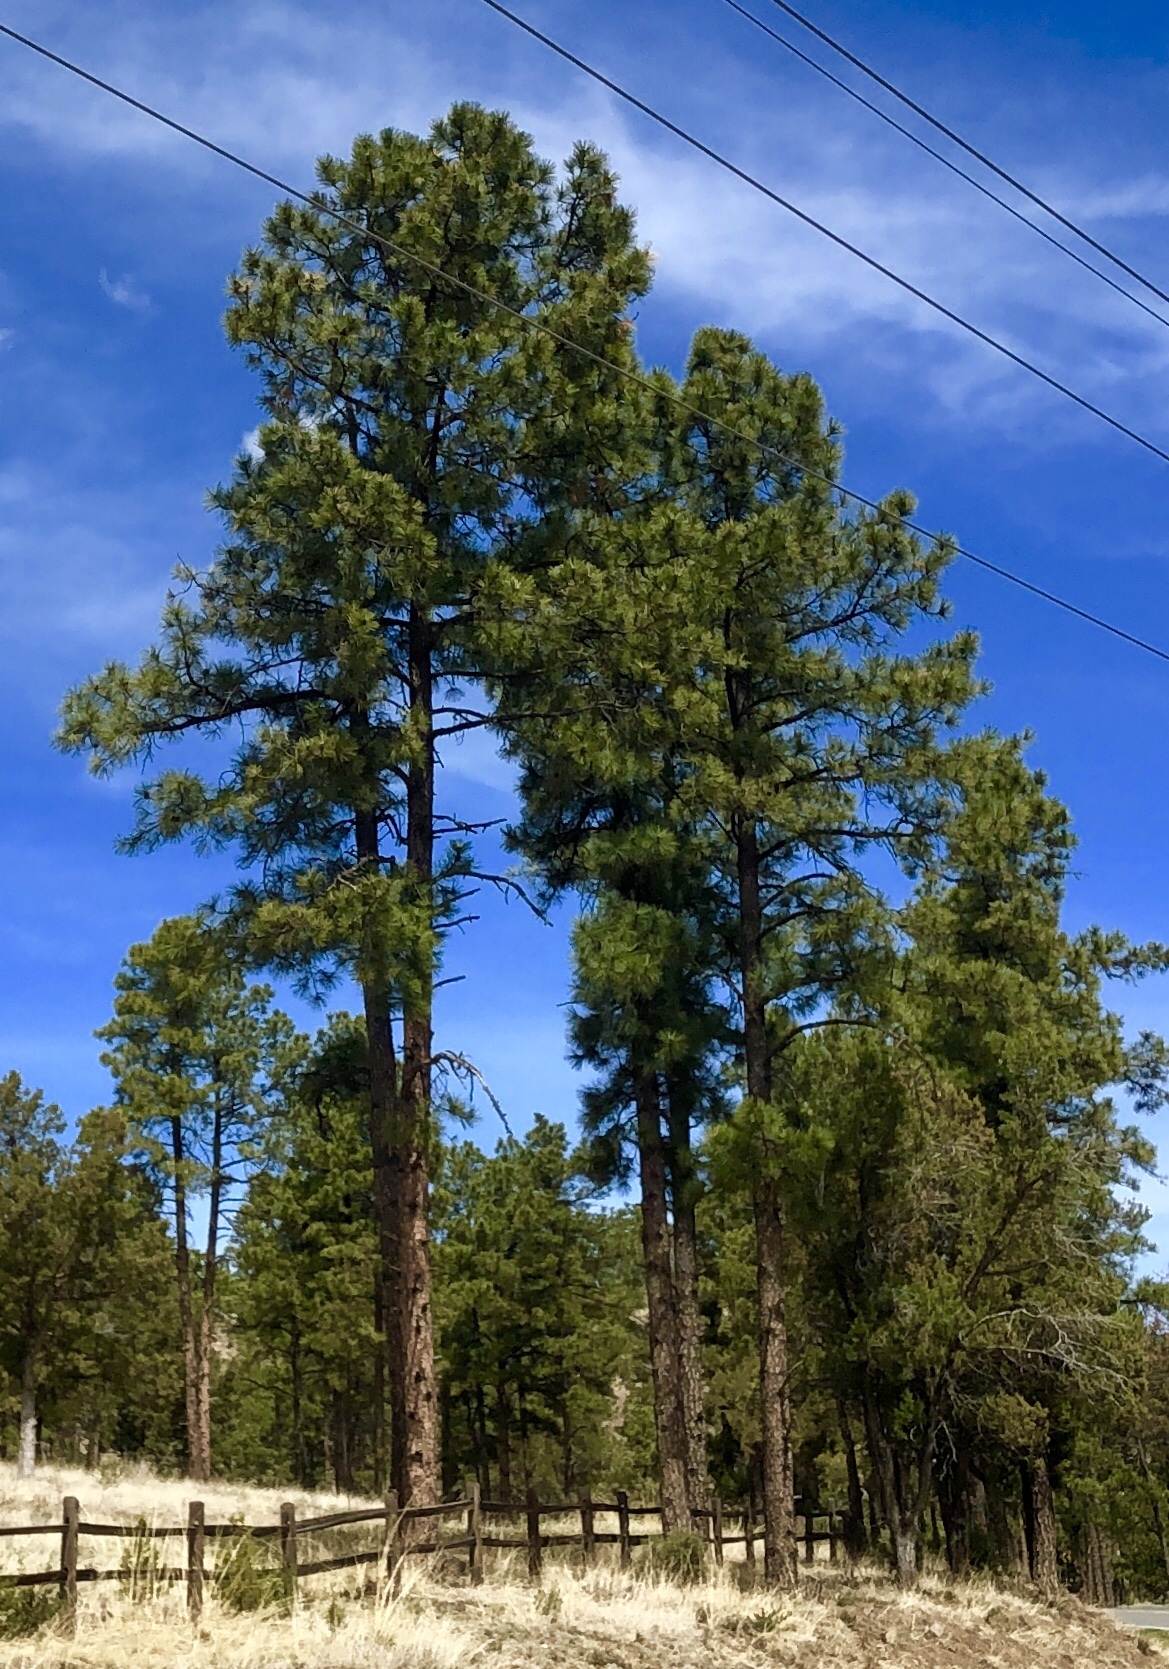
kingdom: Plantae
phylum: Tracheophyta
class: Pinopsida
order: Pinales
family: Pinaceae
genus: Pinus
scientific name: Pinus ponderosa
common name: Western yellow-pine
